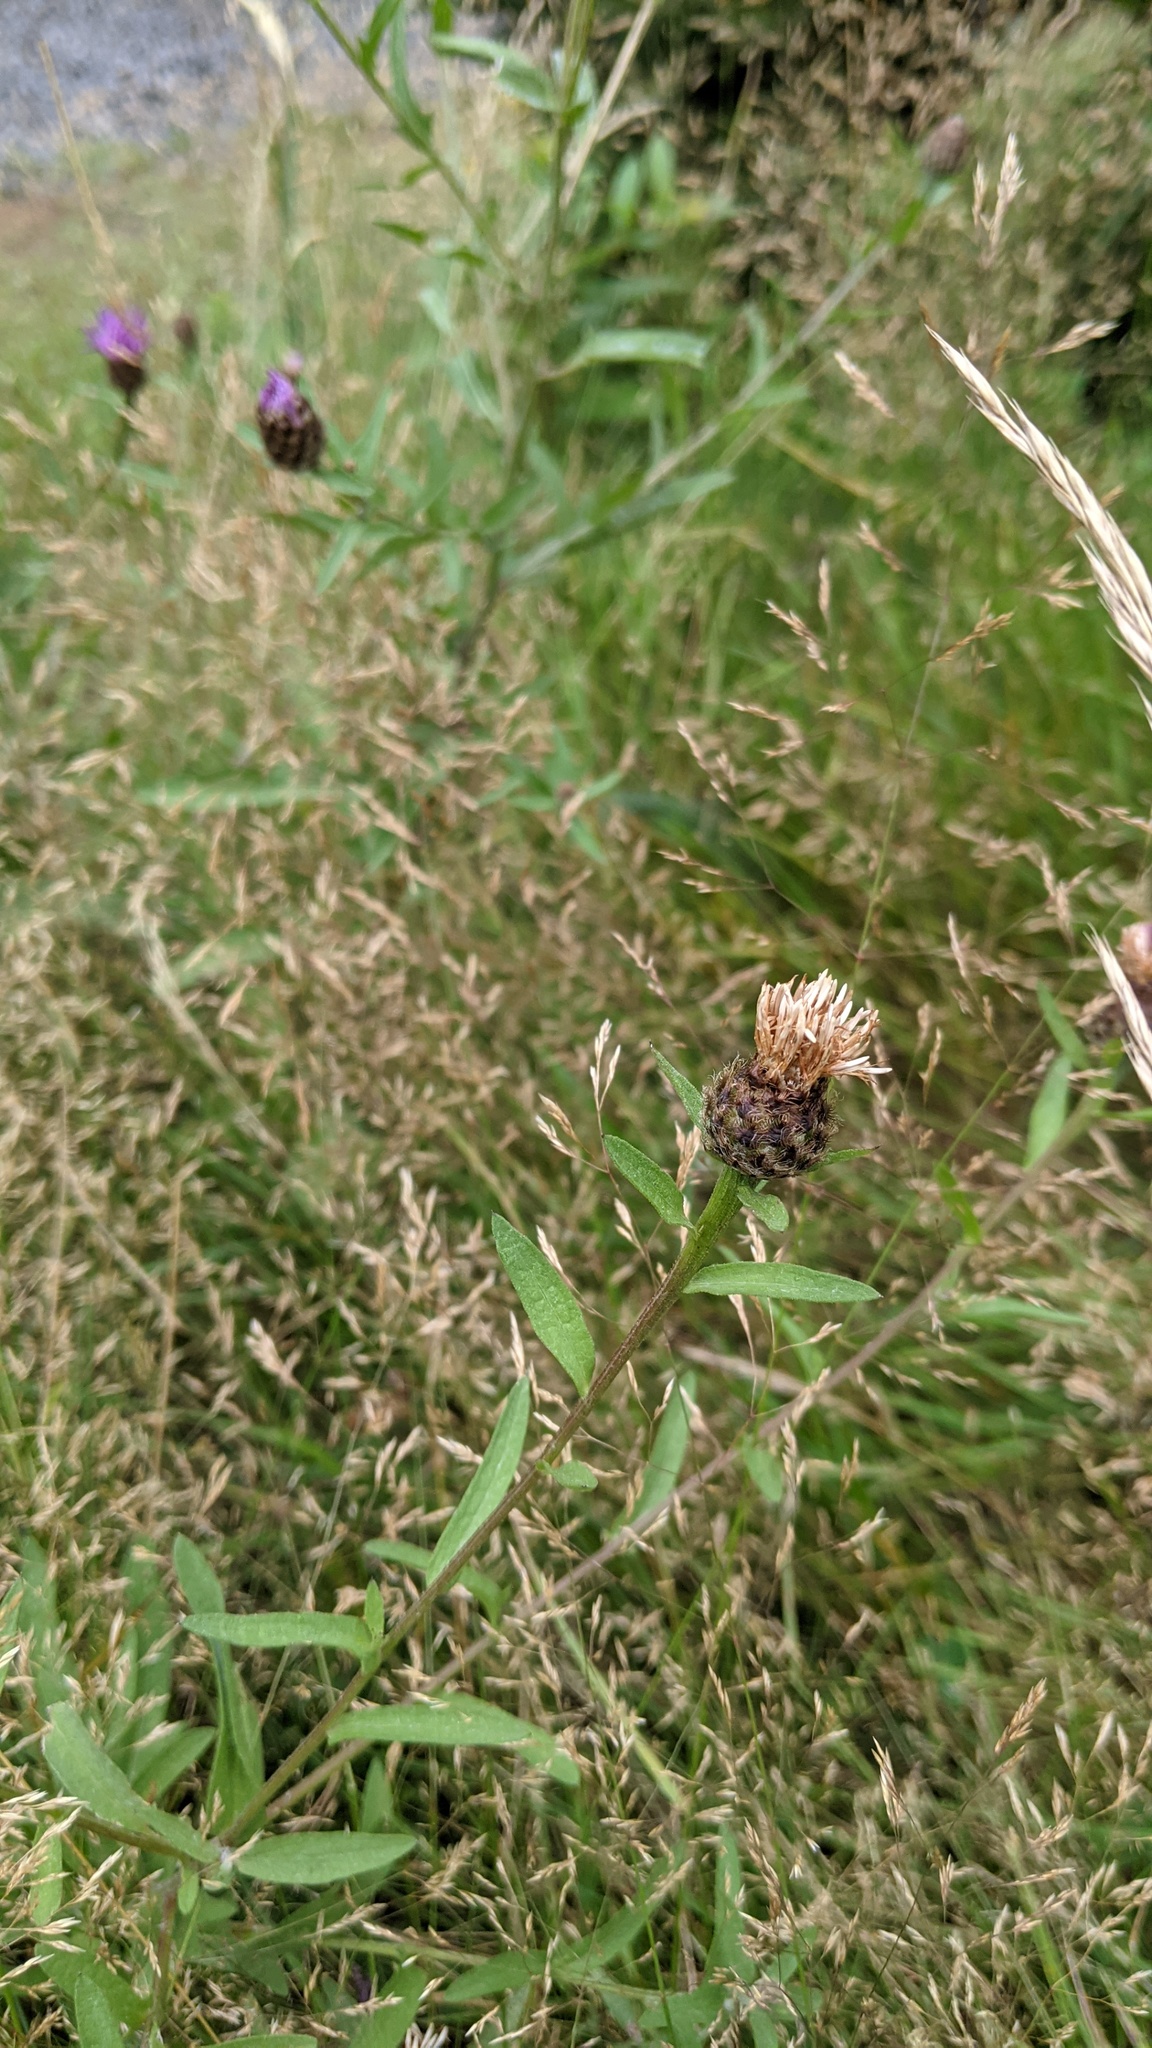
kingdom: Plantae
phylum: Tracheophyta
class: Magnoliopsida
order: Asterales
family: Asteraceae
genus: Centaurea
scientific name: Centaurea nigra
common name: Lesser knapweed
